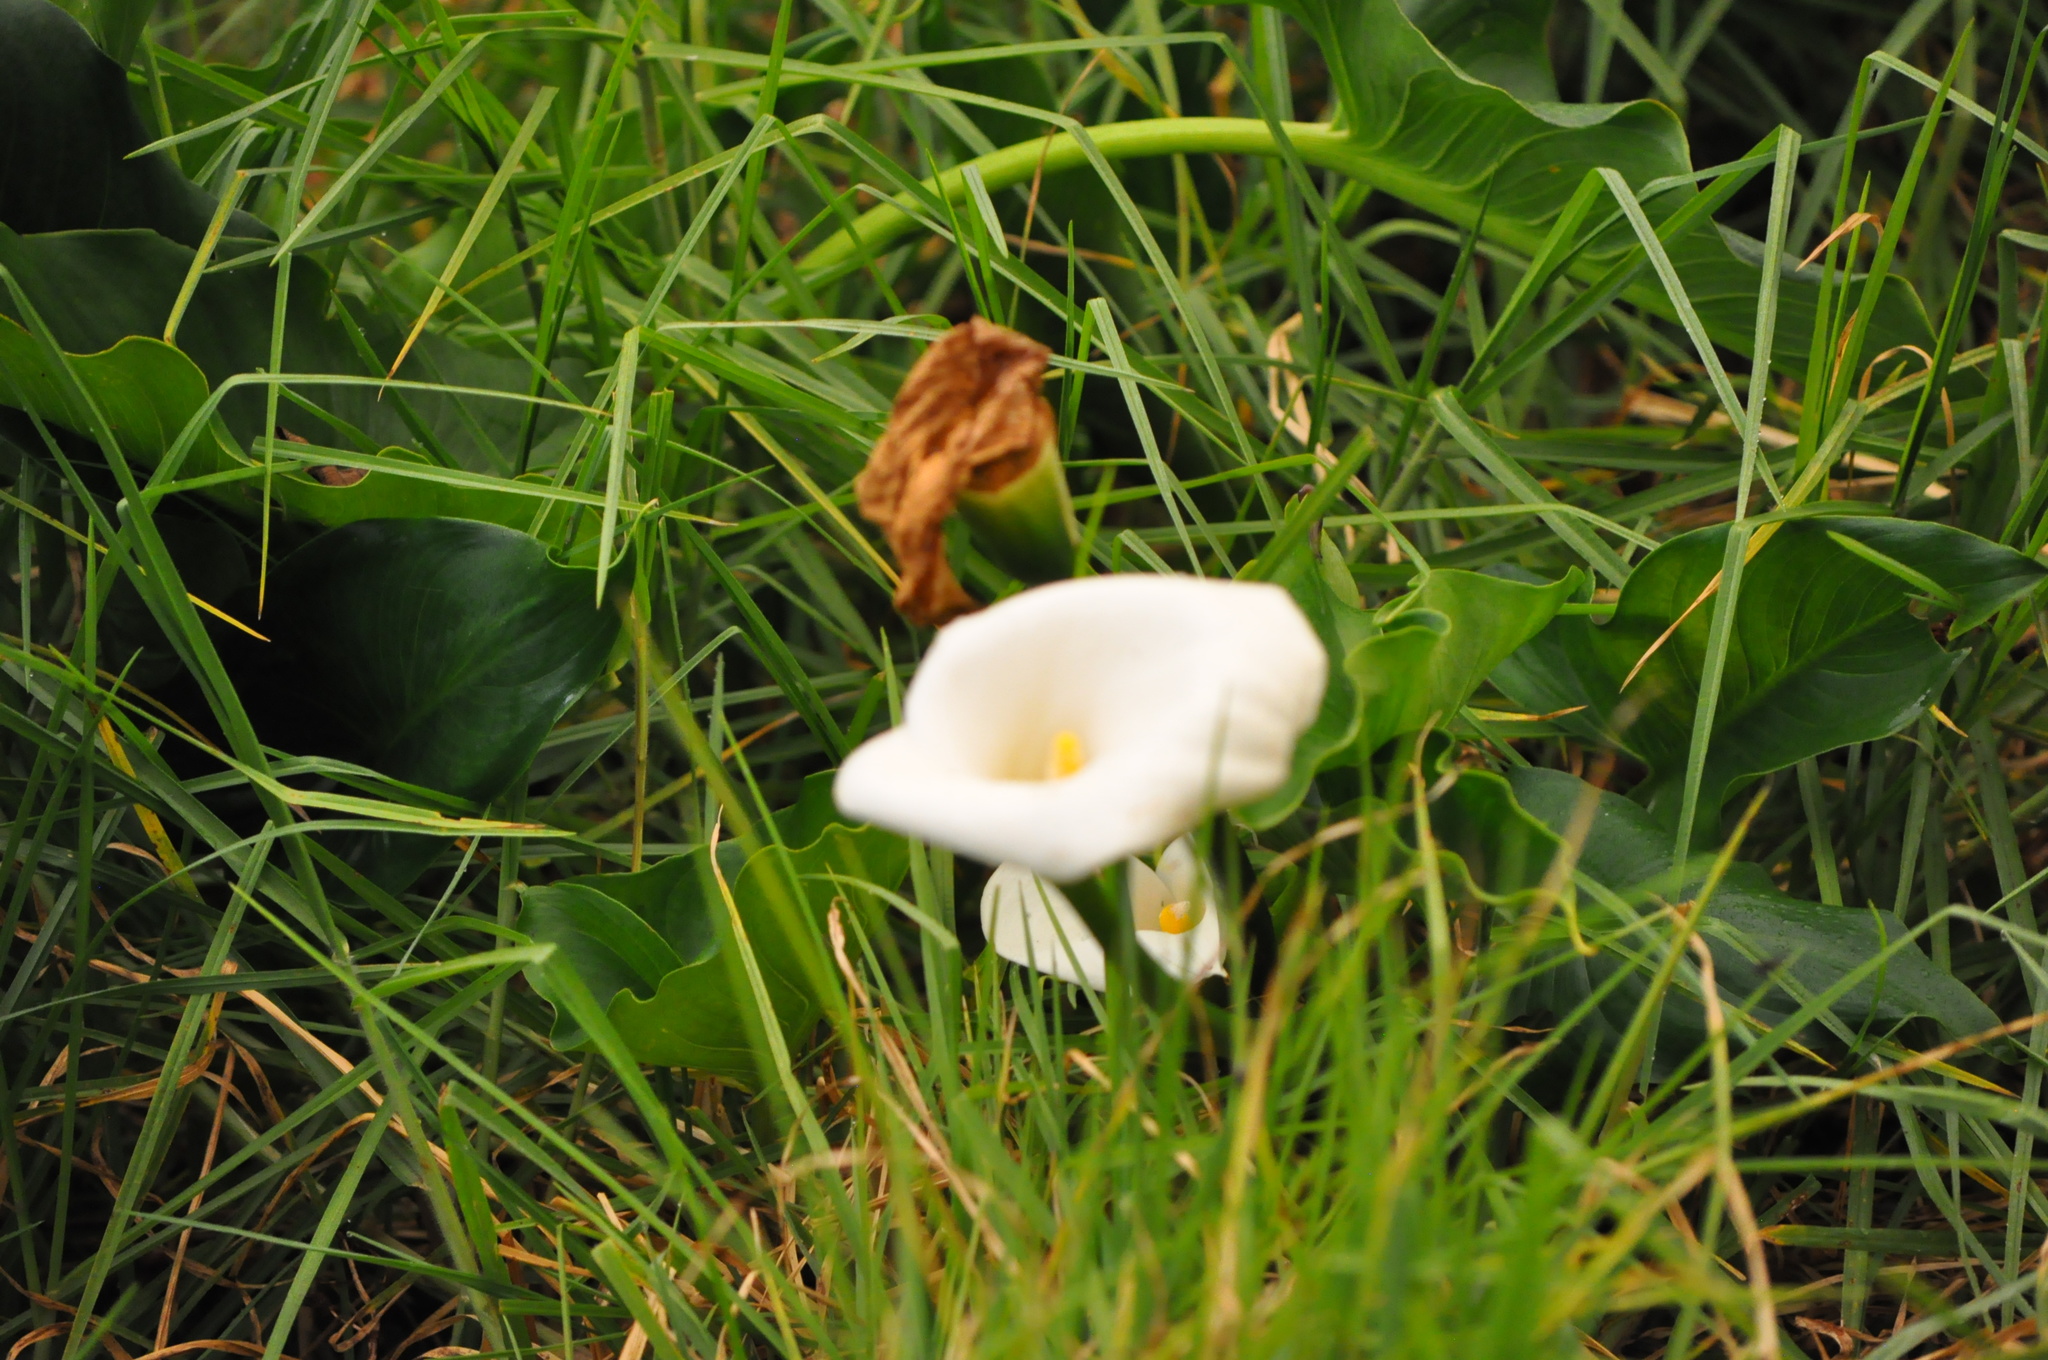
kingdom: Plantae
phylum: Tracheophyta
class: Liliopsida
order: Alismatales
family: Araceae
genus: Zantedeschia
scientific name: Zantedeschia aethiopica
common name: Altar-lily
